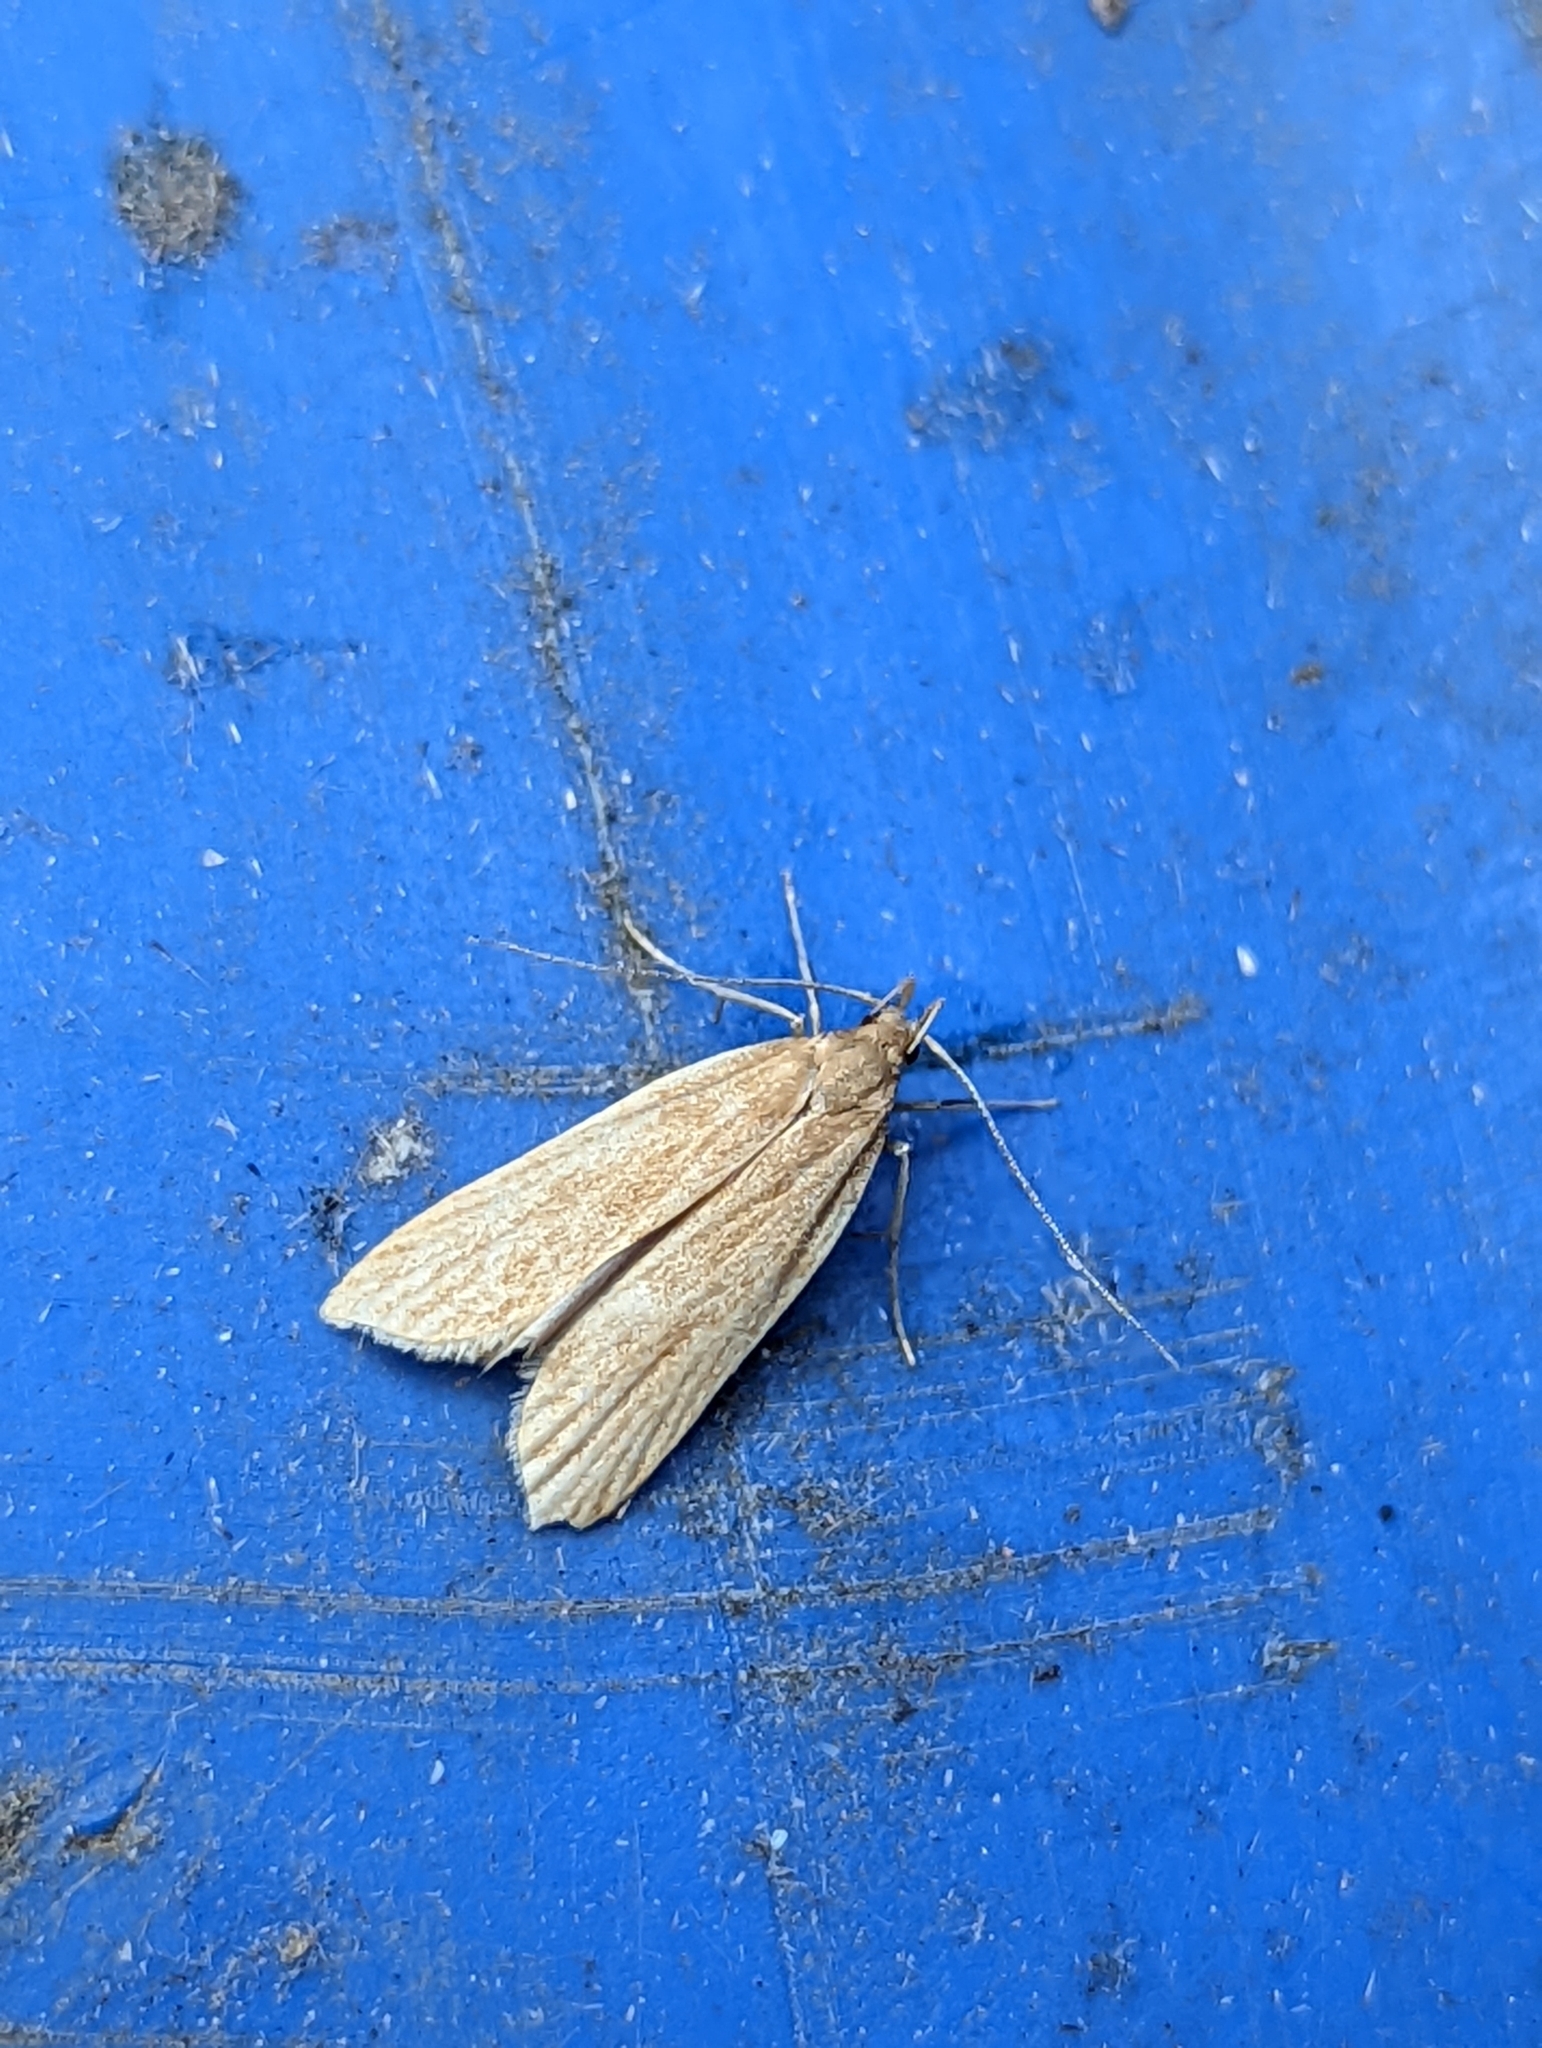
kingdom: Animalia
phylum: Arthropoda
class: Insecta
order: Lepidoptera
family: Gelechiidae
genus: Helcystogramma
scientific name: Helcystogramma rufescens
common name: Orange crest
